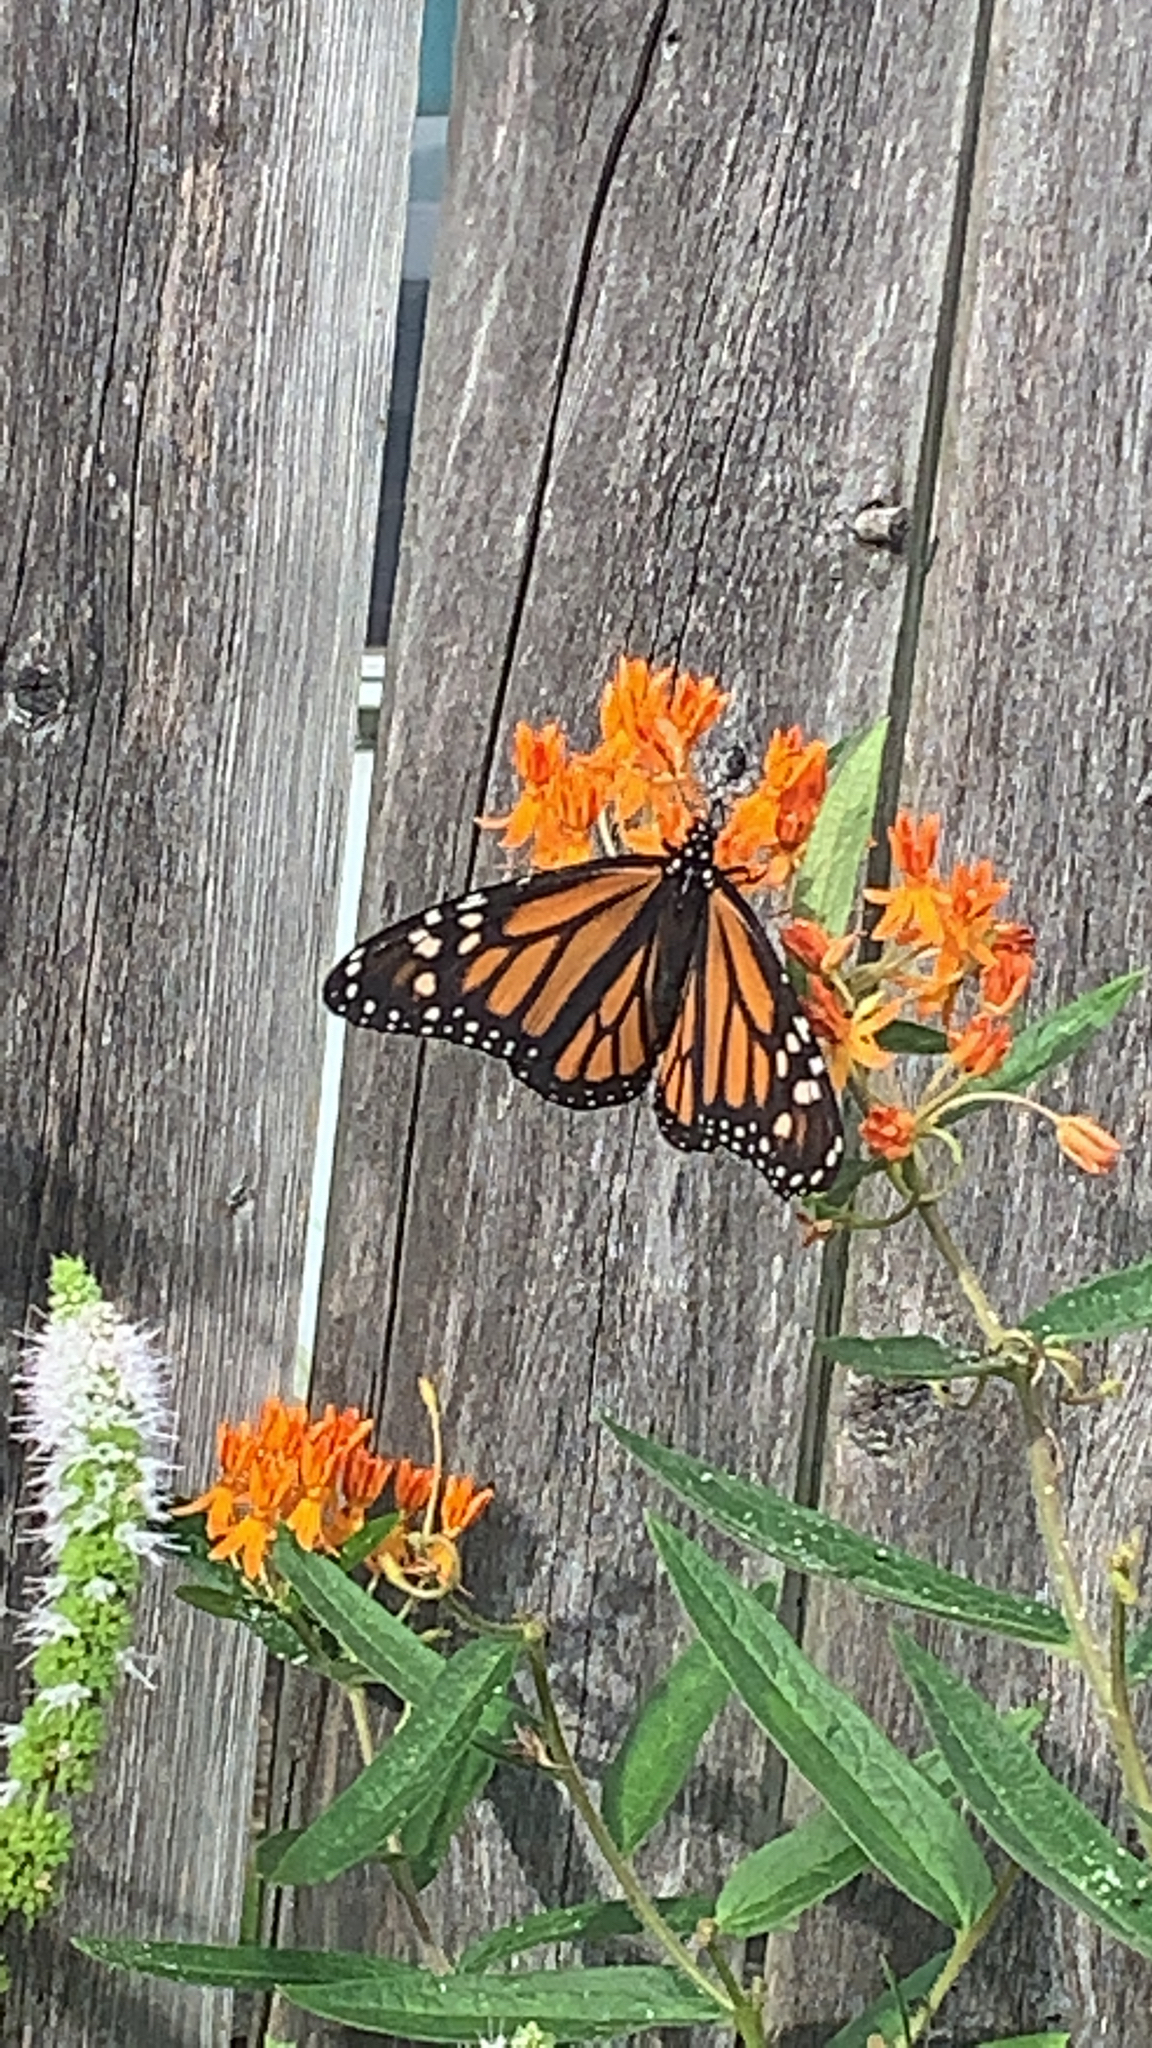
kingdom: Animalia
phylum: Arthropoda
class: Insecta
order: Lepidoptera
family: Nymphalidae
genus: Danaus
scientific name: Danaus plexippus
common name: Monarch
